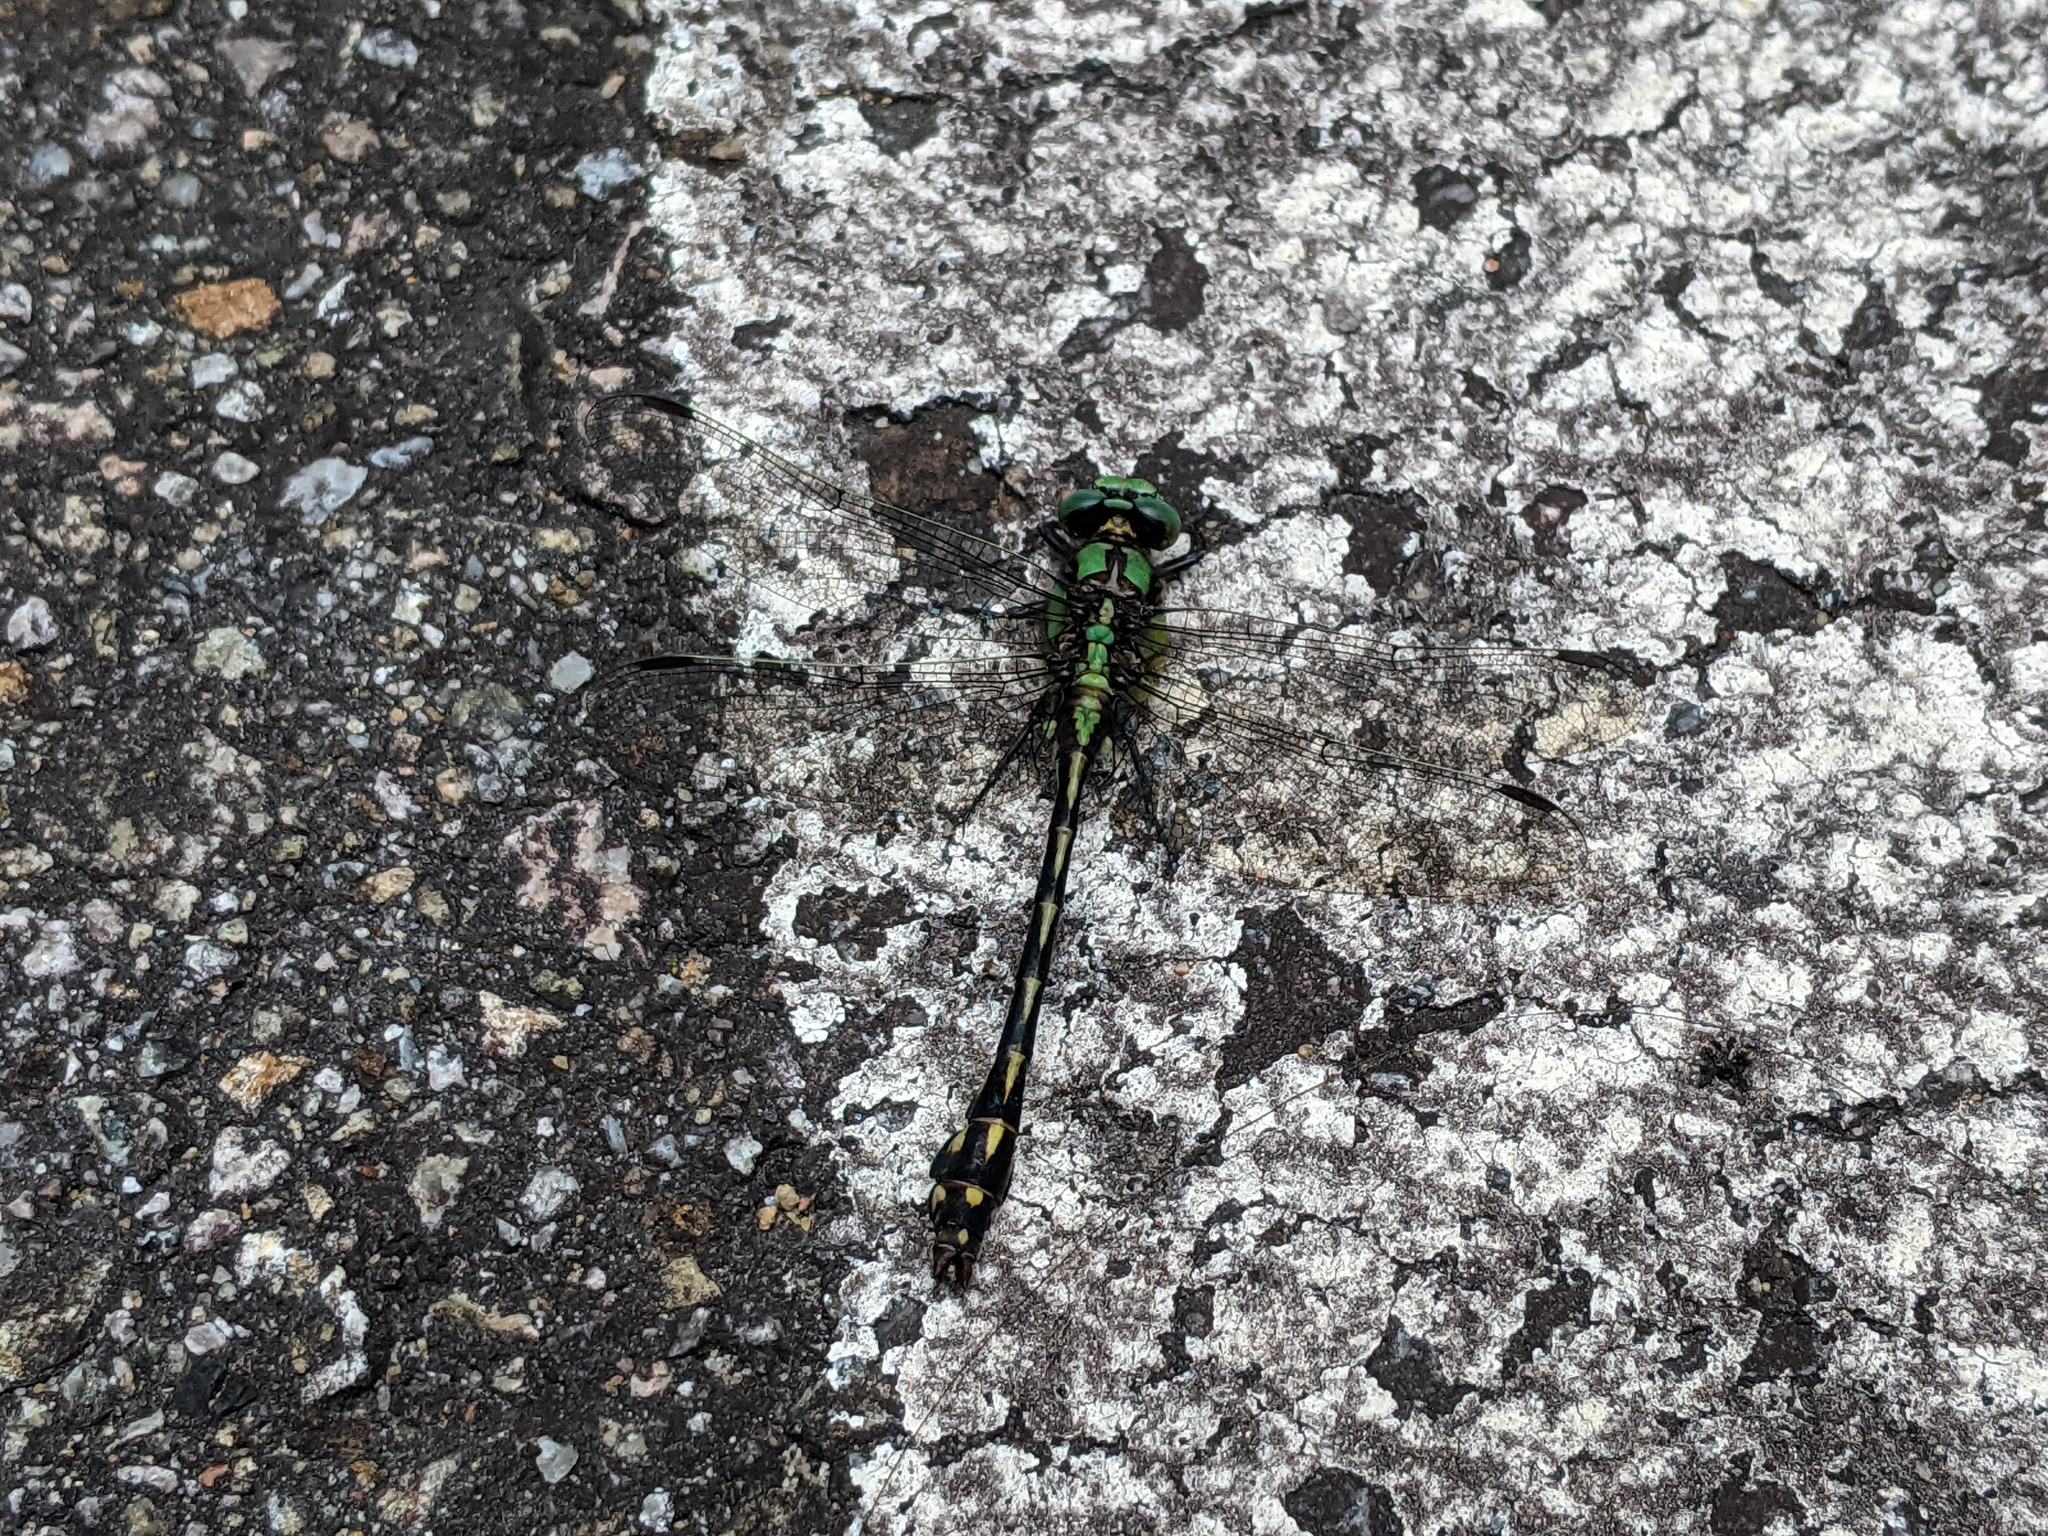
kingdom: Animalia
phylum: Arthropoda
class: Insecta
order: Odonata
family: Gomphidae
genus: Ophiogomphus
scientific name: Ophiogomphus aspersus
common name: Brook snaketail
